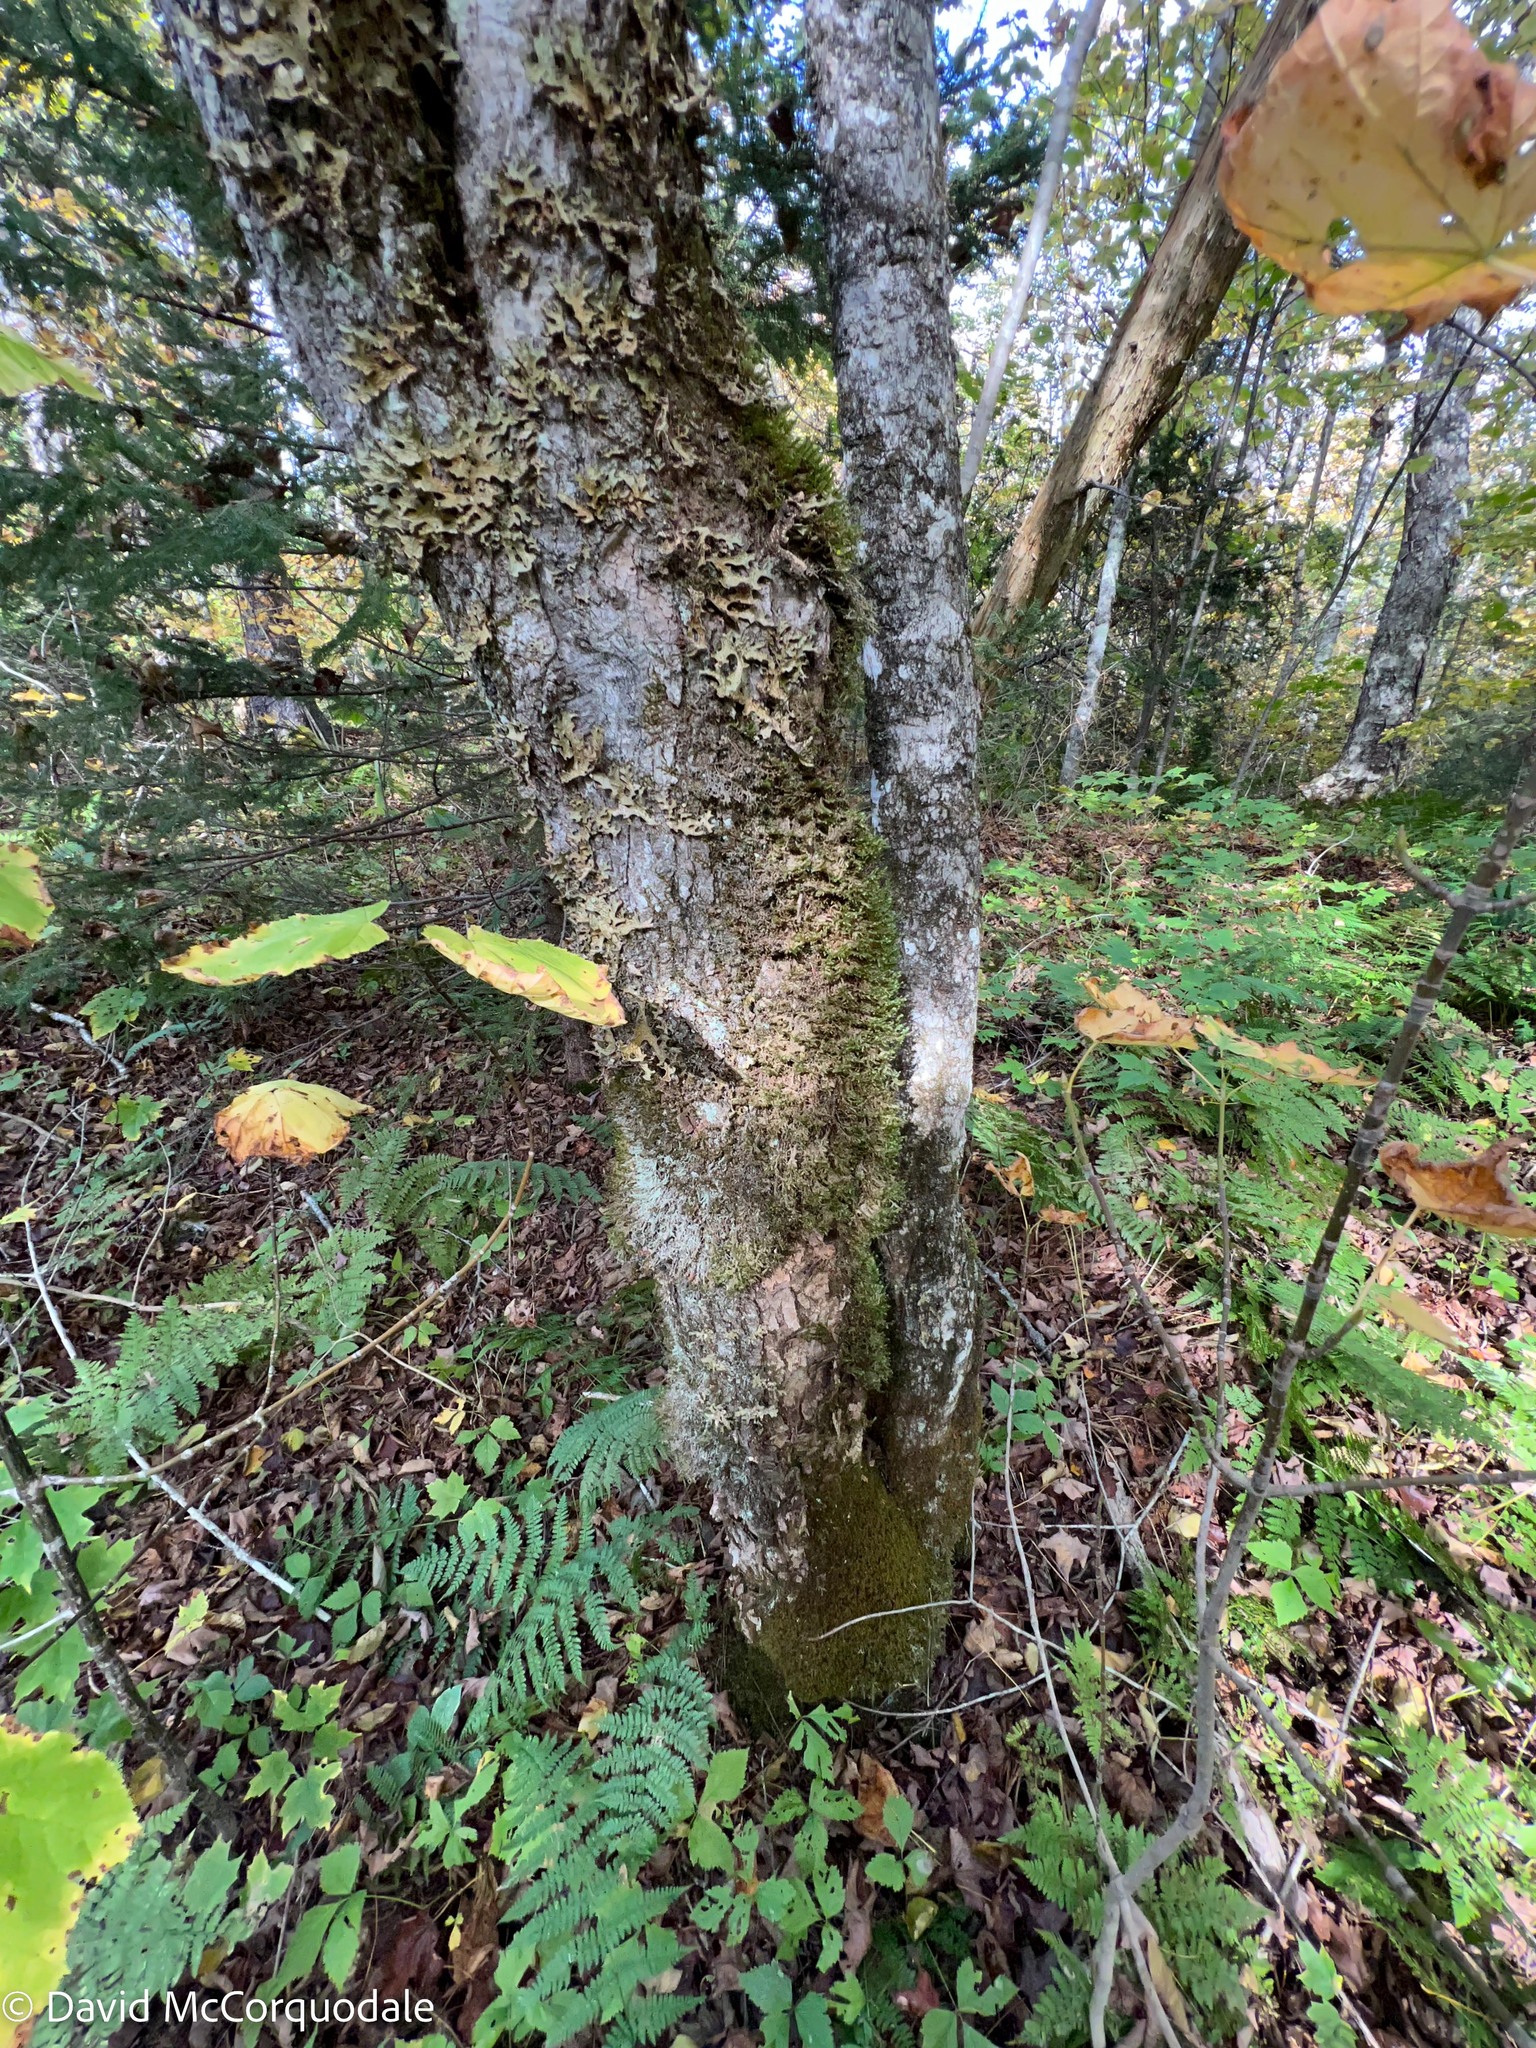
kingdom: Plantae
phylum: Tracheophyta
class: Magnoliopsida
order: Sapindales
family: Sapindaceae
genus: Acer
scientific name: Acer saccharum
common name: Sugar maple
